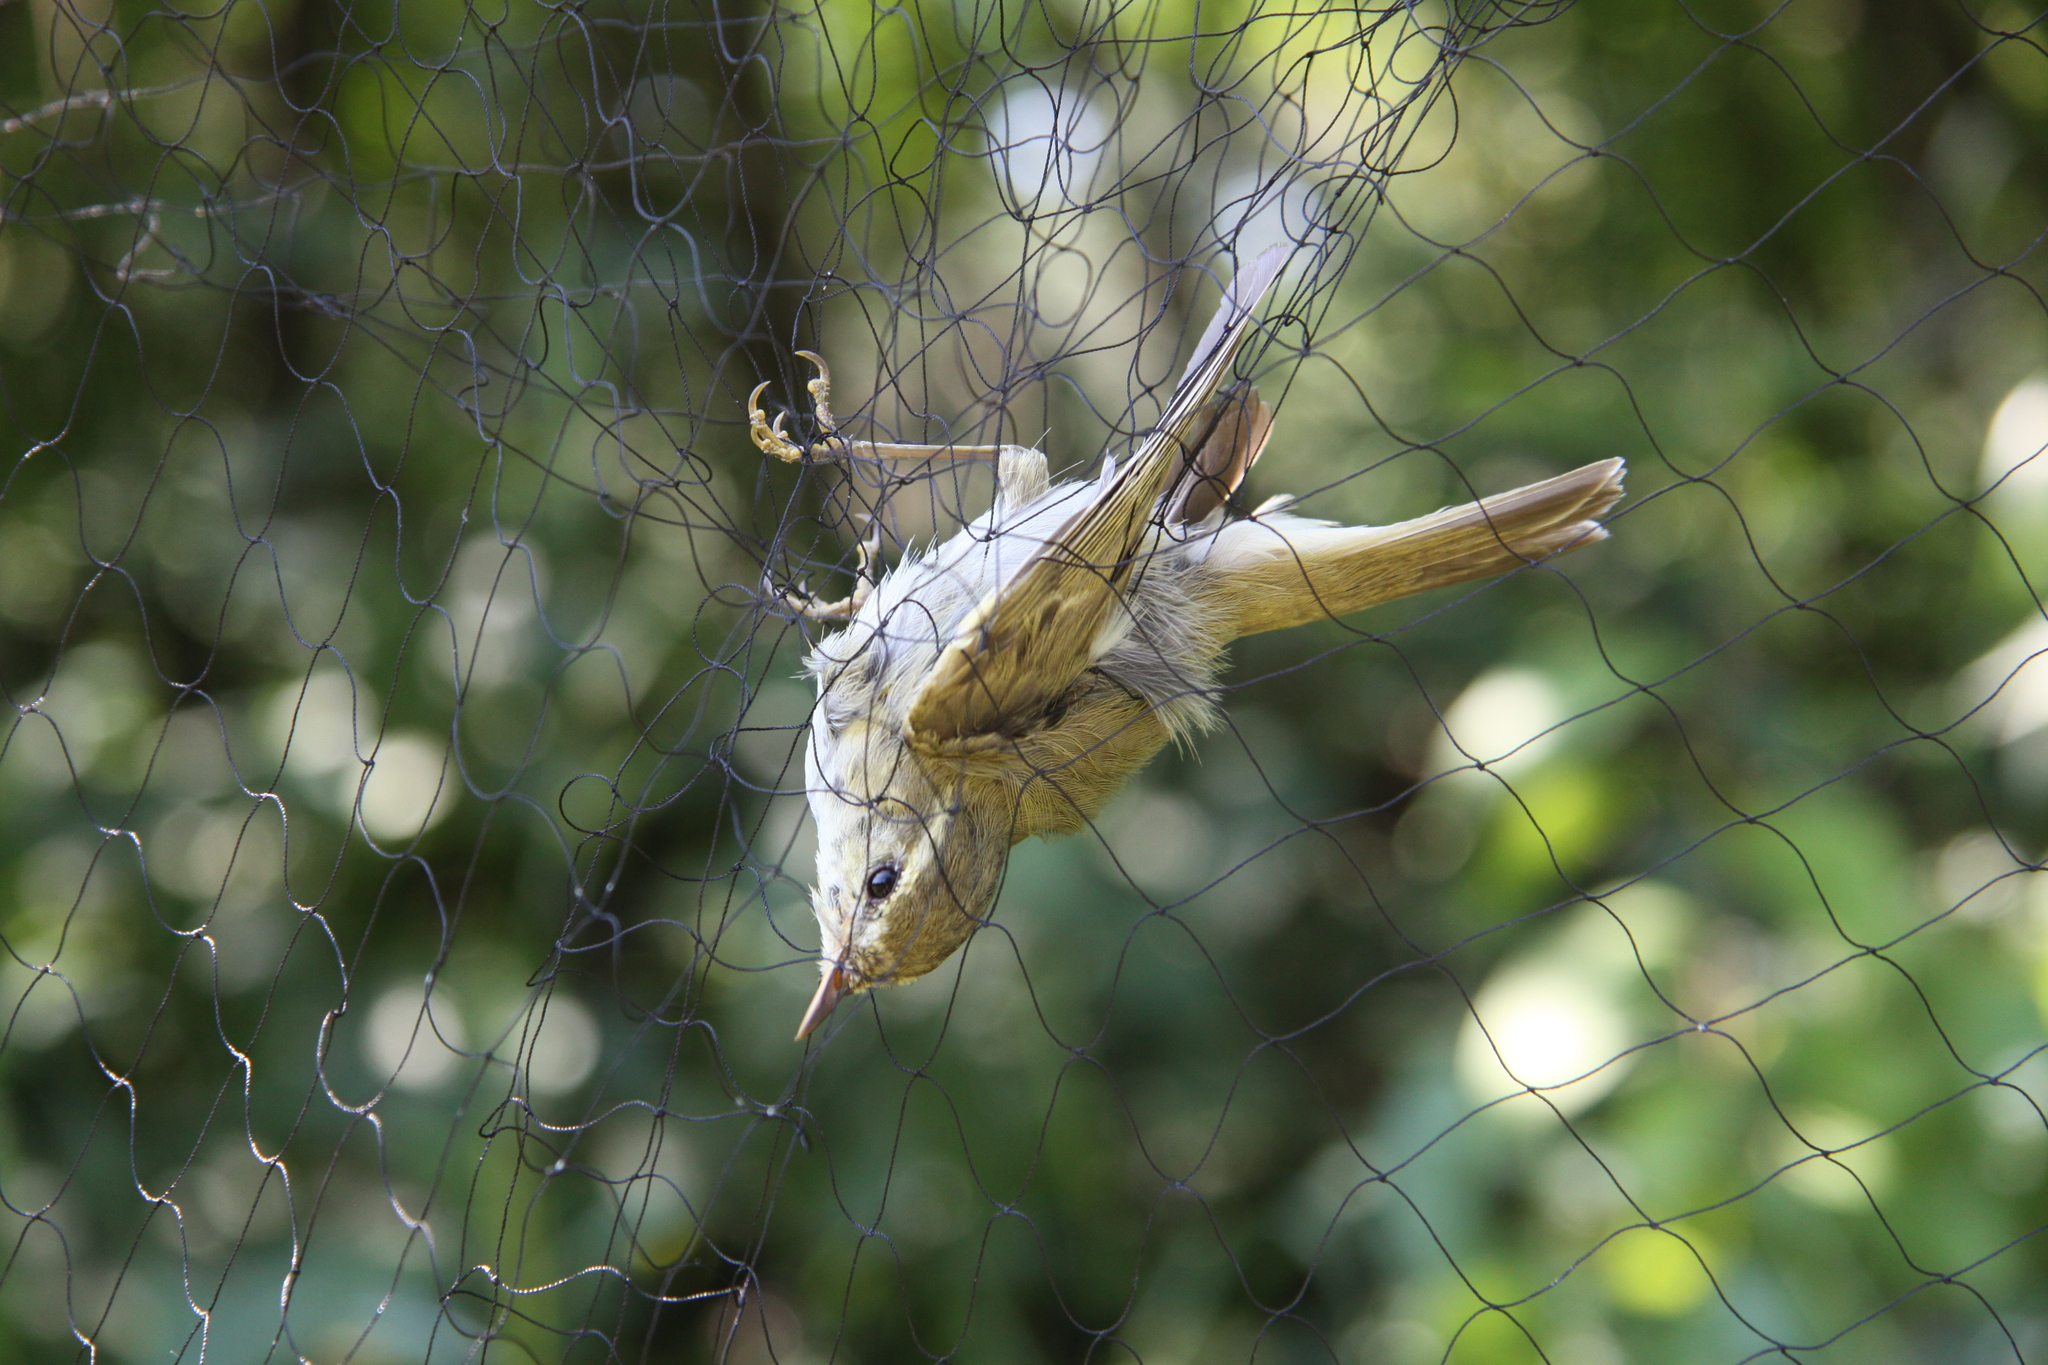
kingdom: Animalia
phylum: Chordata
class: Aves
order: Passeriformes
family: Phylloscopidae
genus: Phylloscopus
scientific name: Phylloscopus trochiloides
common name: Greenish warbler
